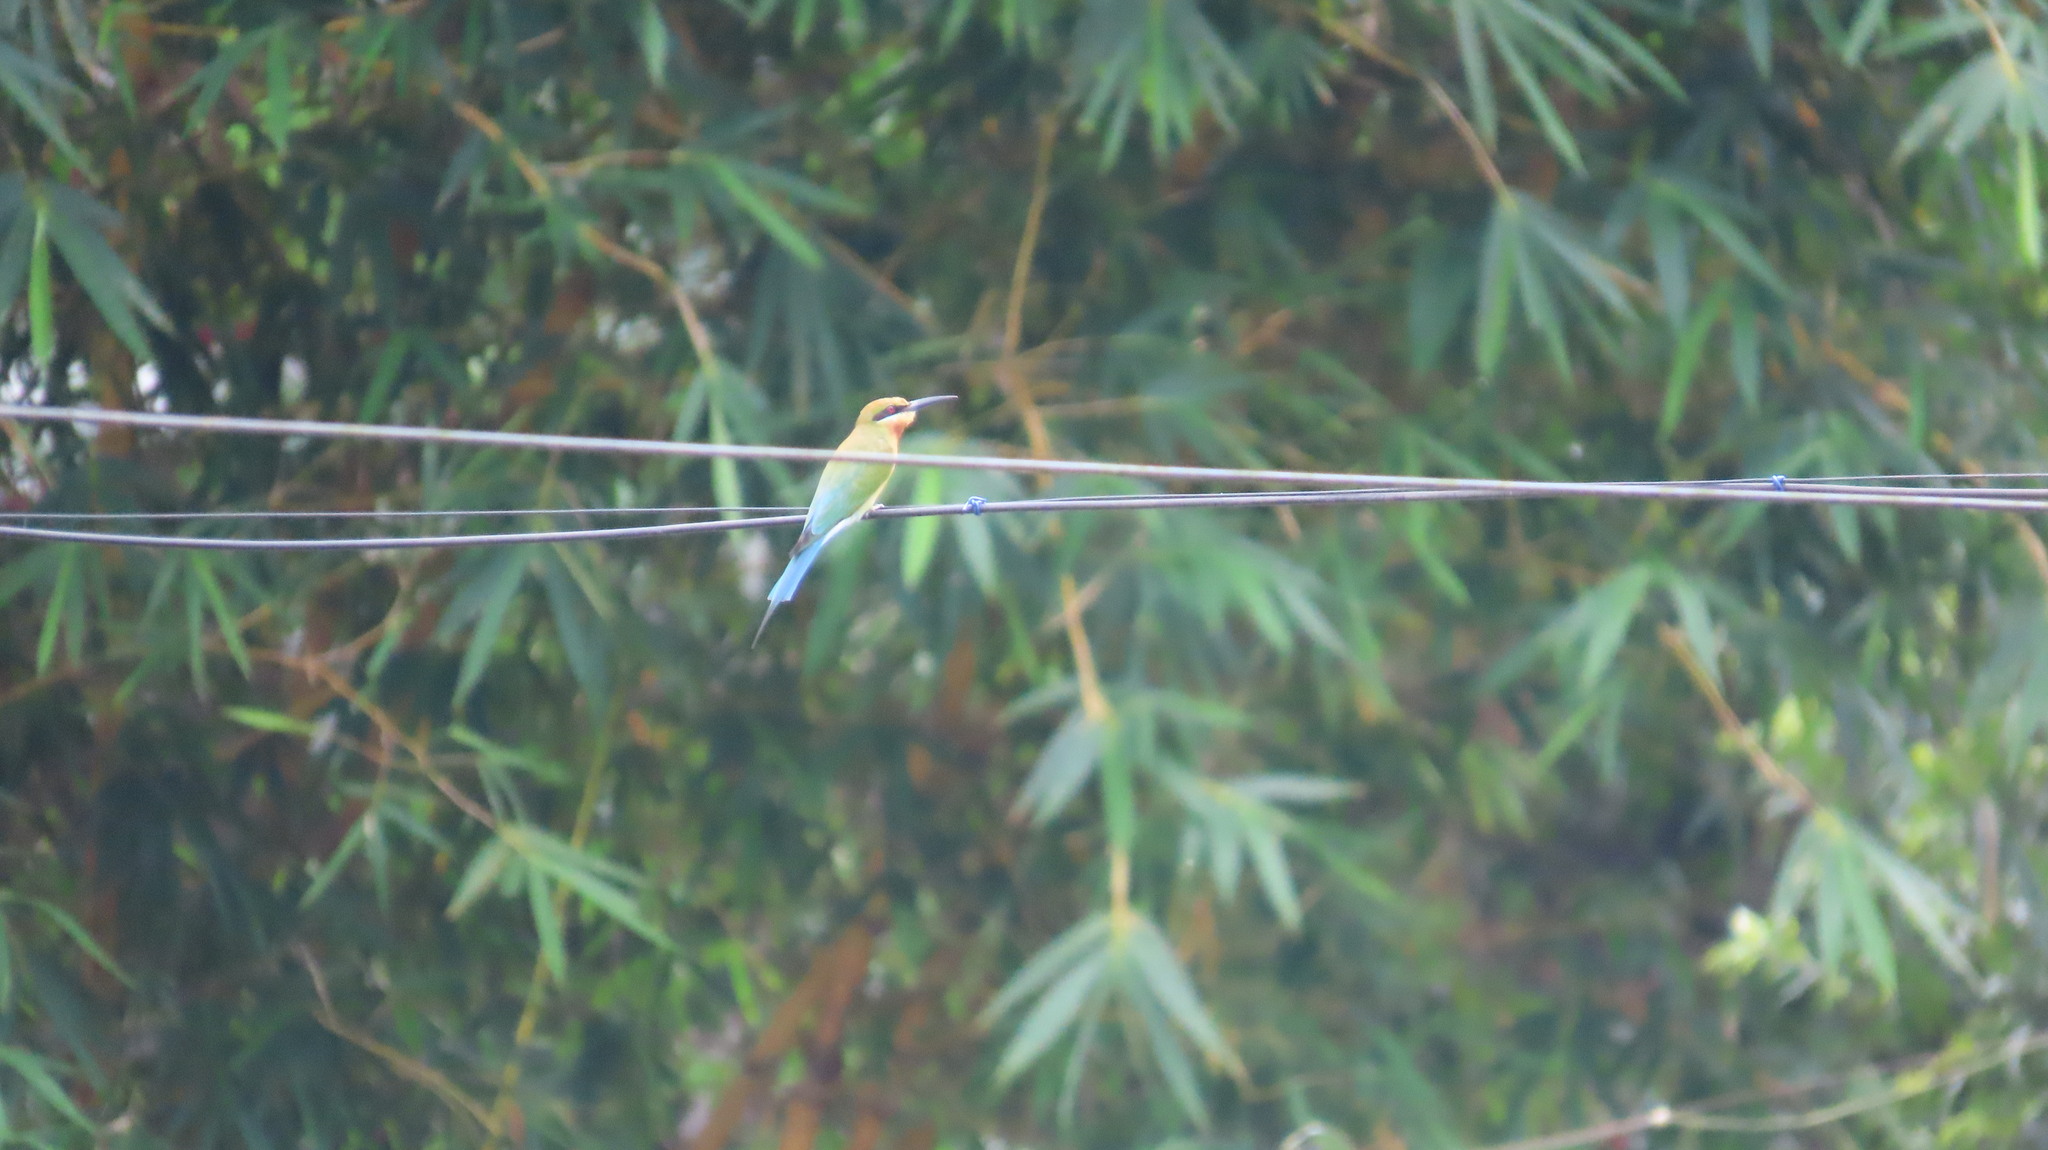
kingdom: Animalia
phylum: Chordata
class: Aves
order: Coraciiformes
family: Meropidae
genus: Merops
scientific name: Merops philippinus
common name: Blue-tailed bee-eater
